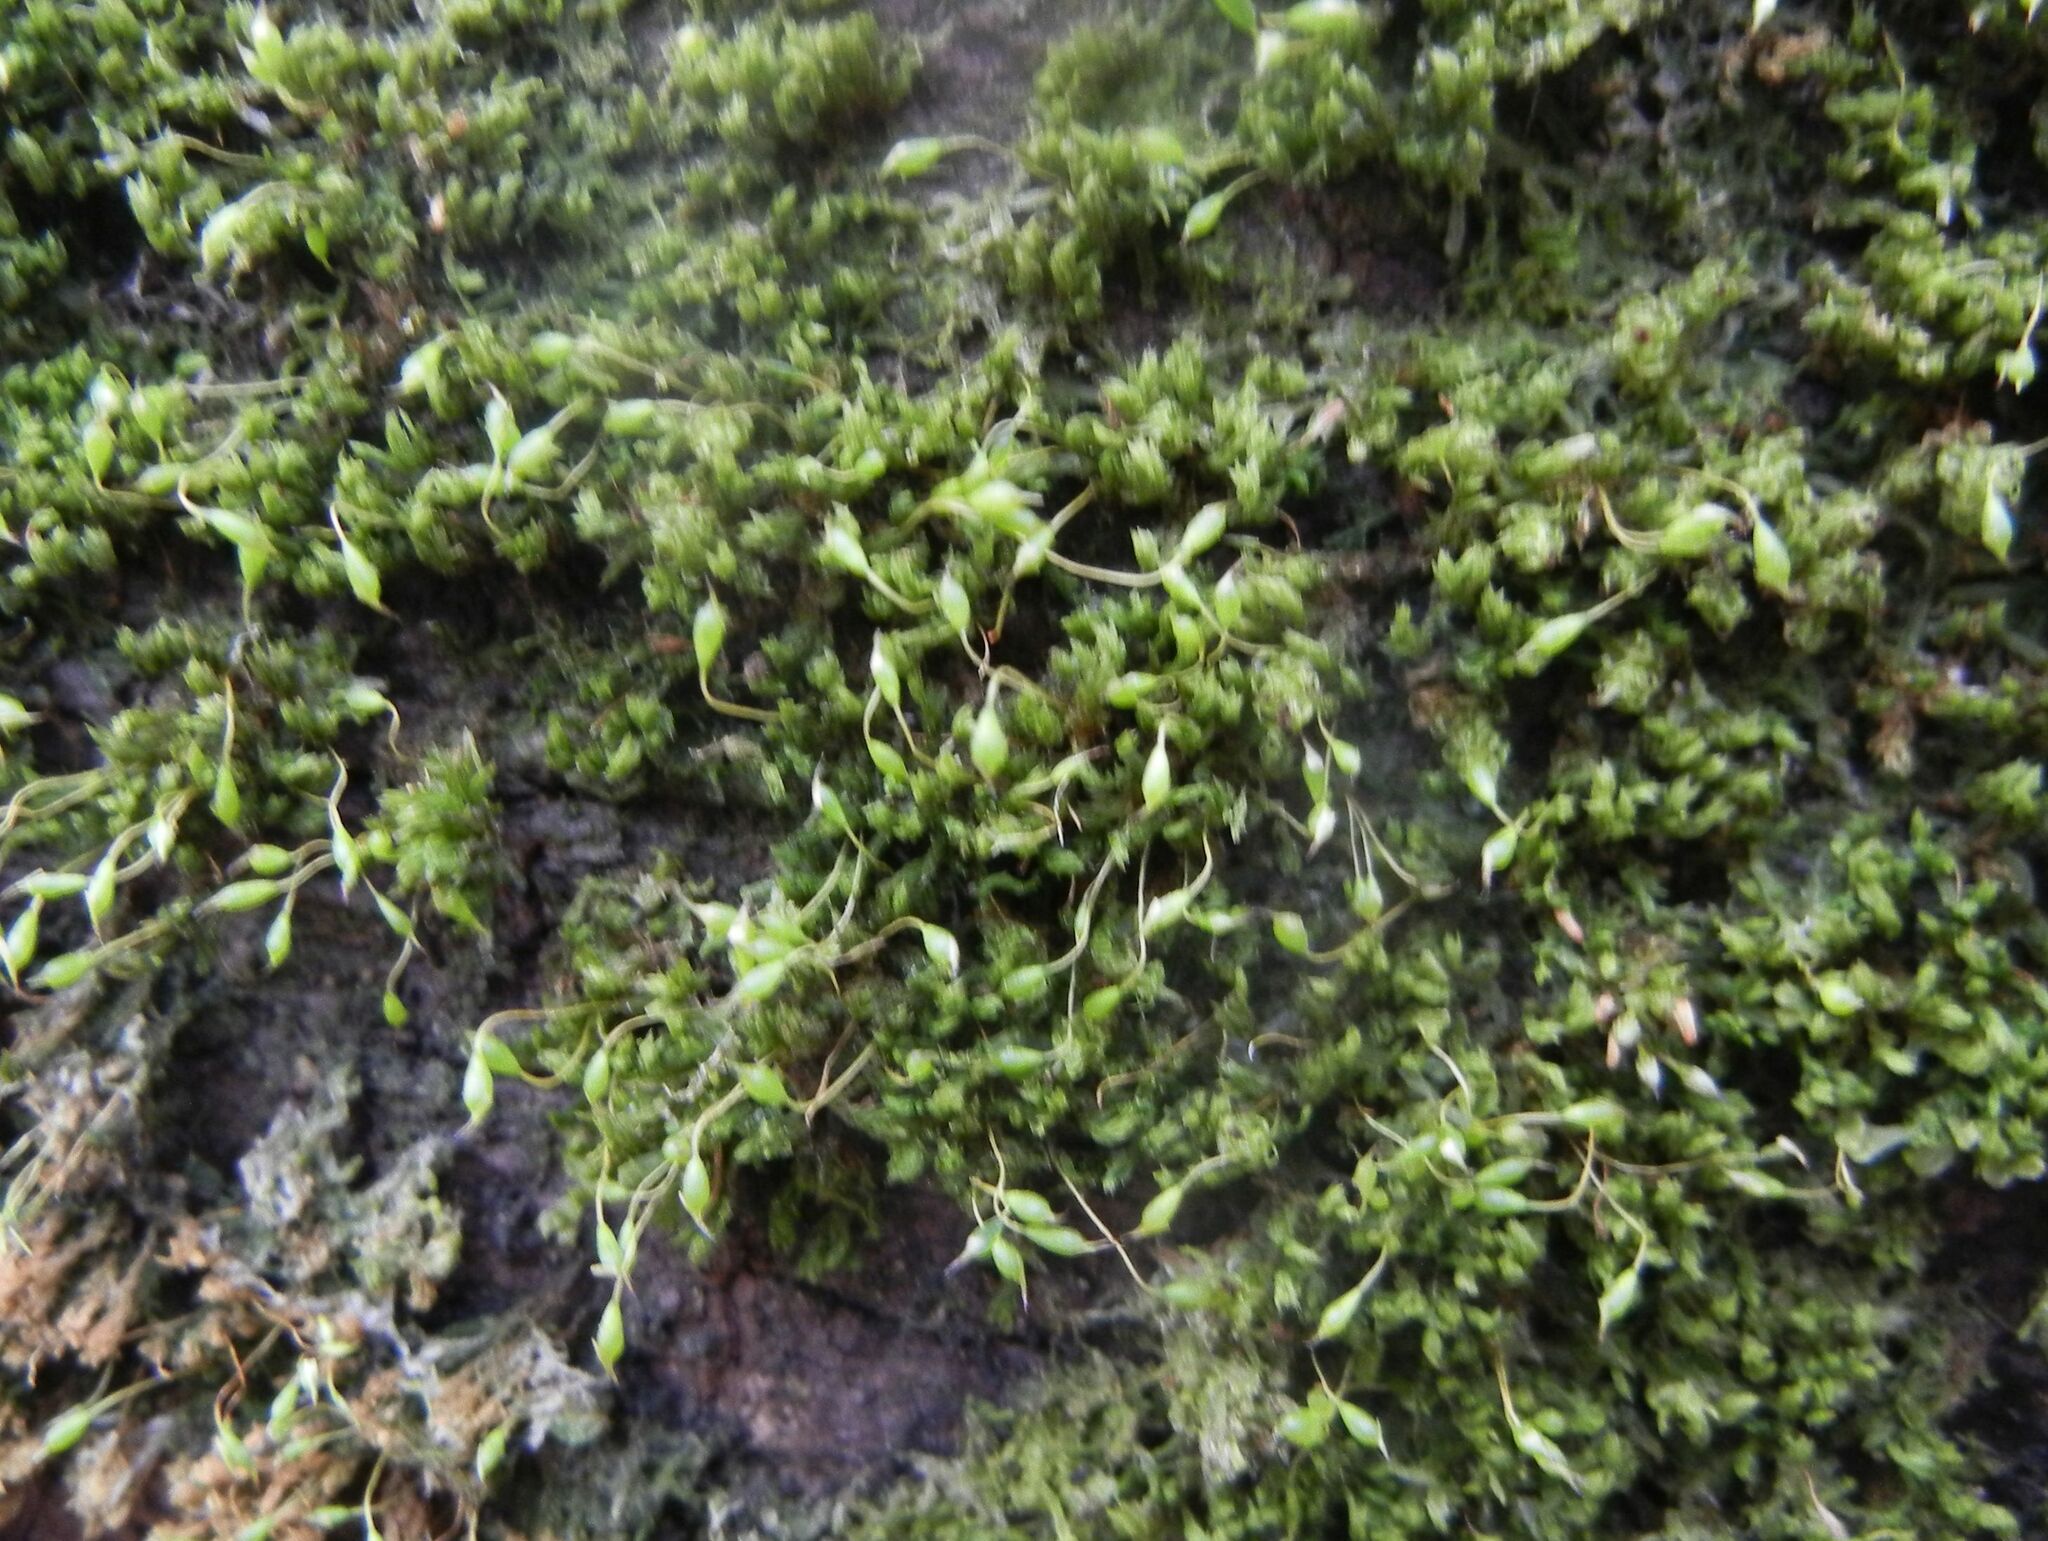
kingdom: Plantae
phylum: Bryophyta
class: Bryopsida
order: Orthotrichales
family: Orthotrichaceae
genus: Zygodon
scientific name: Zygodon conoideus
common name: Lesser yoke-moss
